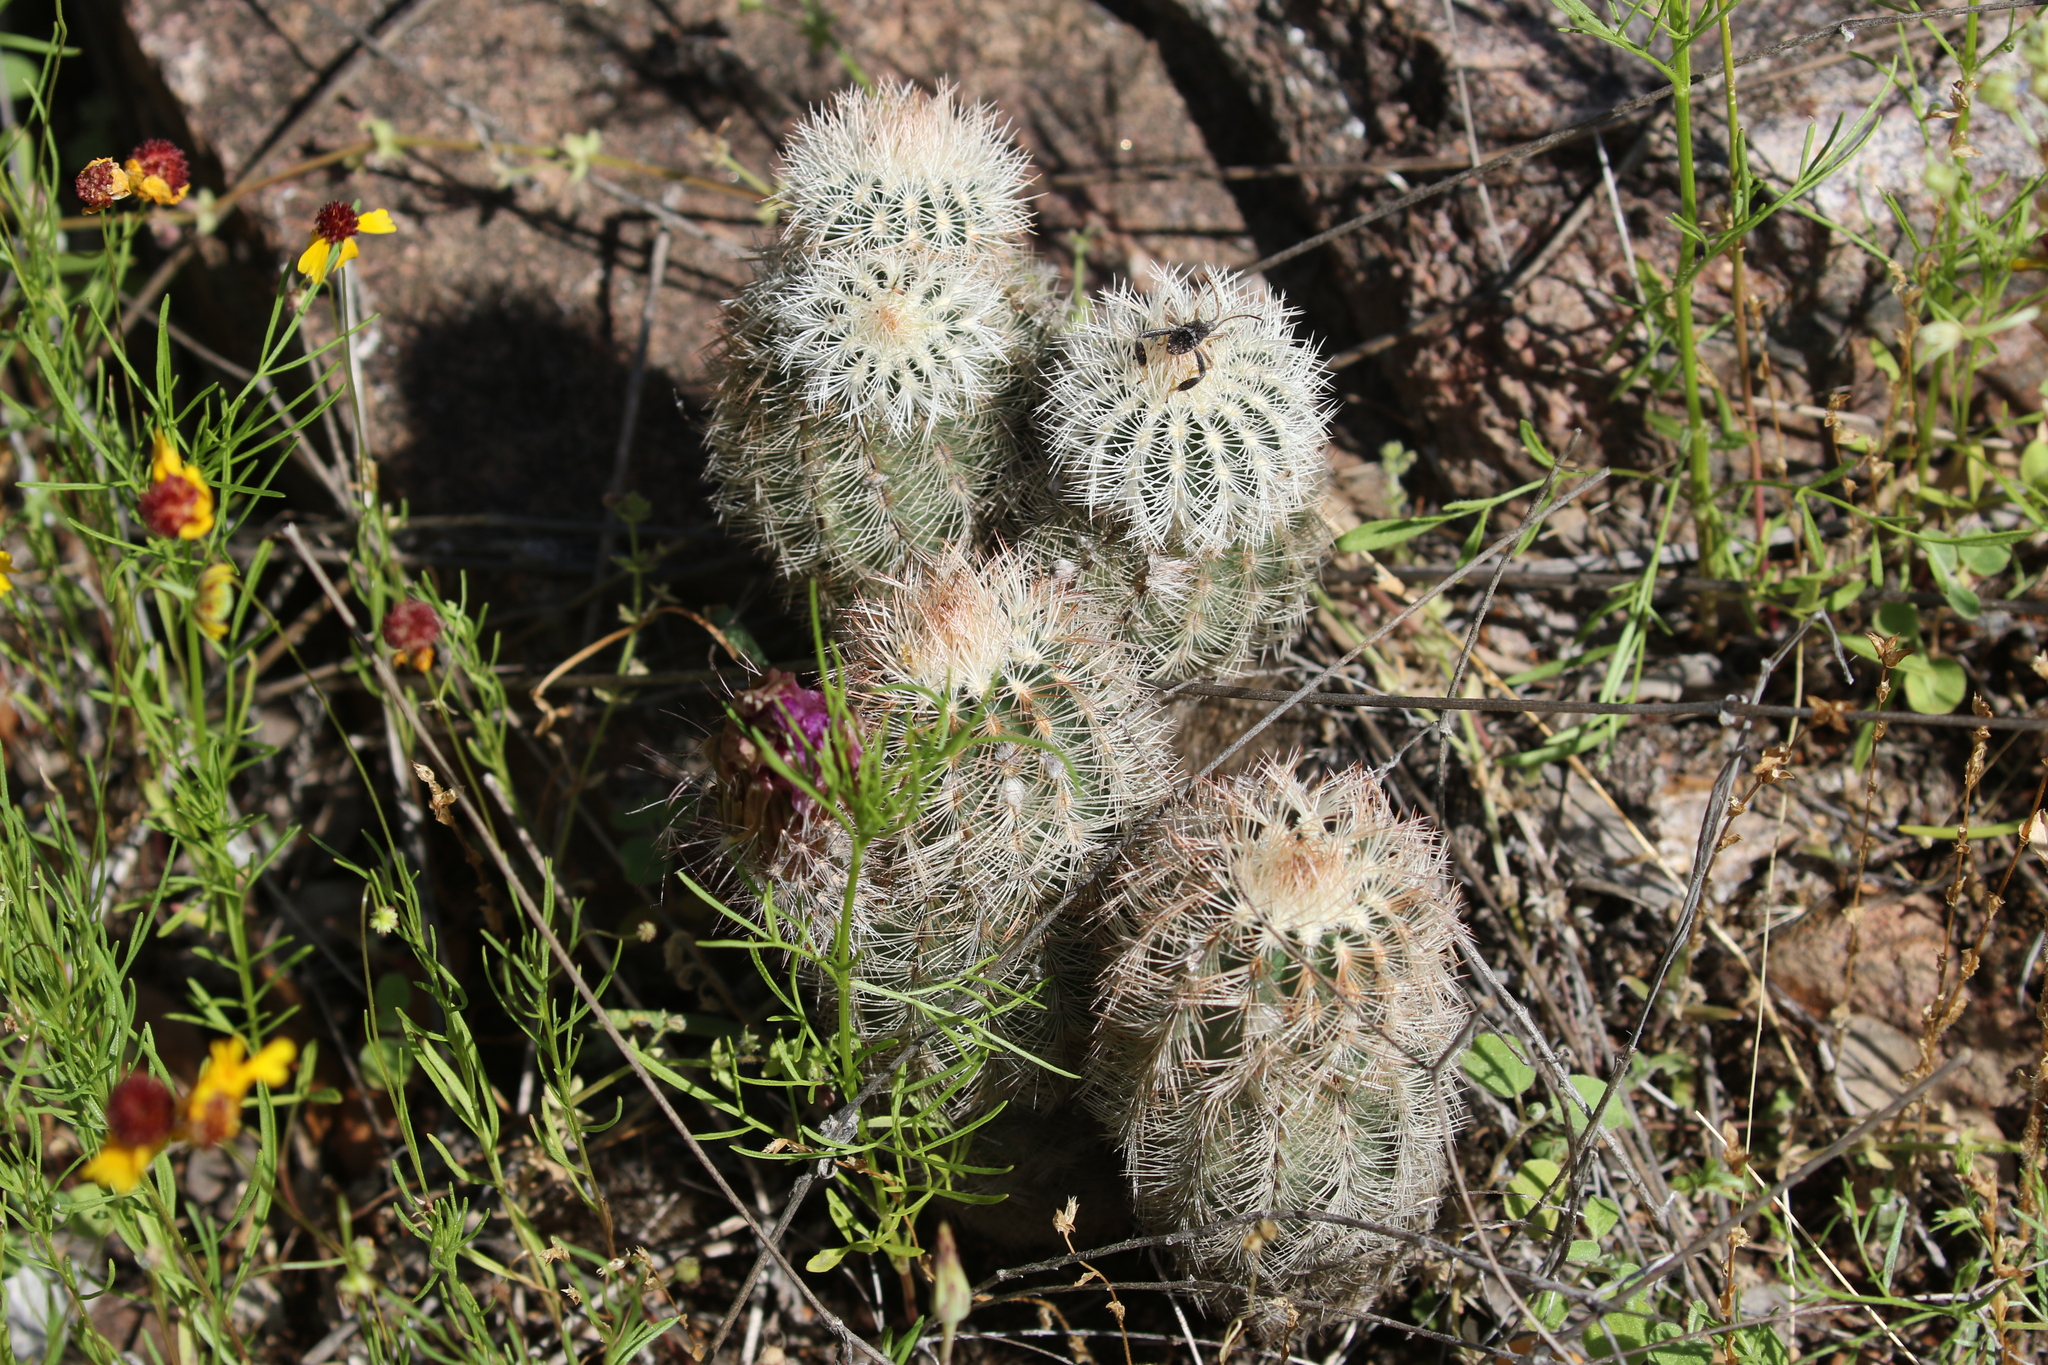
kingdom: Plantae
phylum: Tracheophyta
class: Magnoliopsida
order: Caryophyllales
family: Cactaceae
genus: Echinocereus
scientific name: Echinocereus reichenbachii
